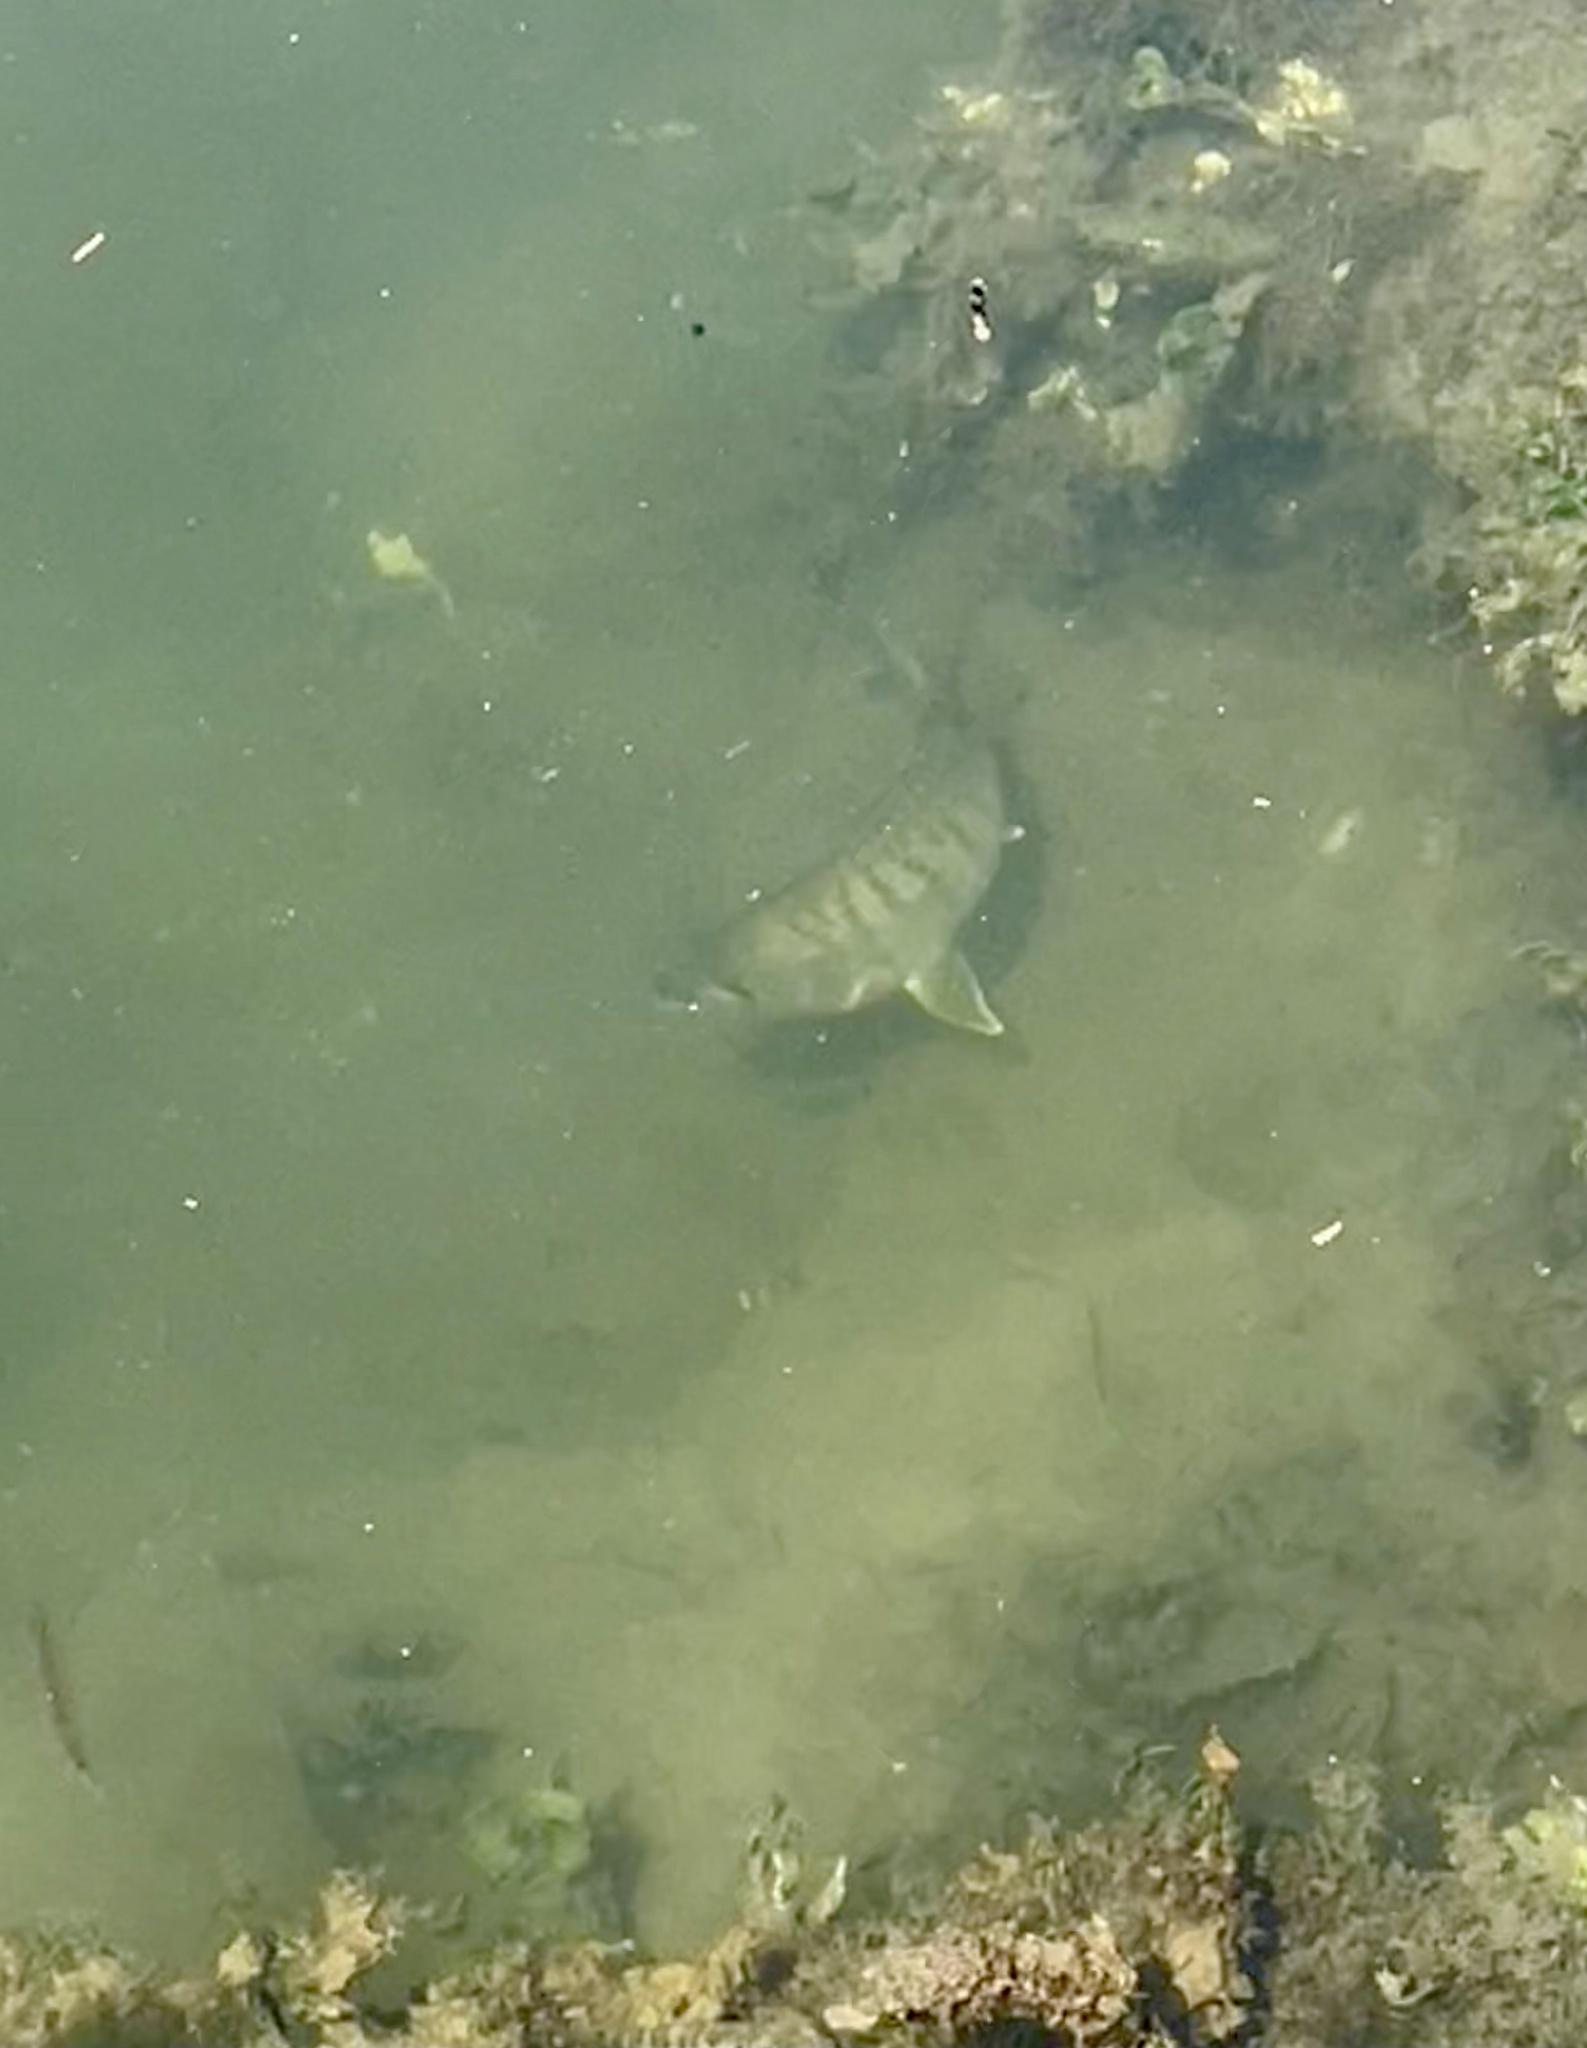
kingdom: Animalia
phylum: Chordata
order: Perciformes
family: Gerreidae
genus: Gerres
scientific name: Gerres cinereus
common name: Hedow
